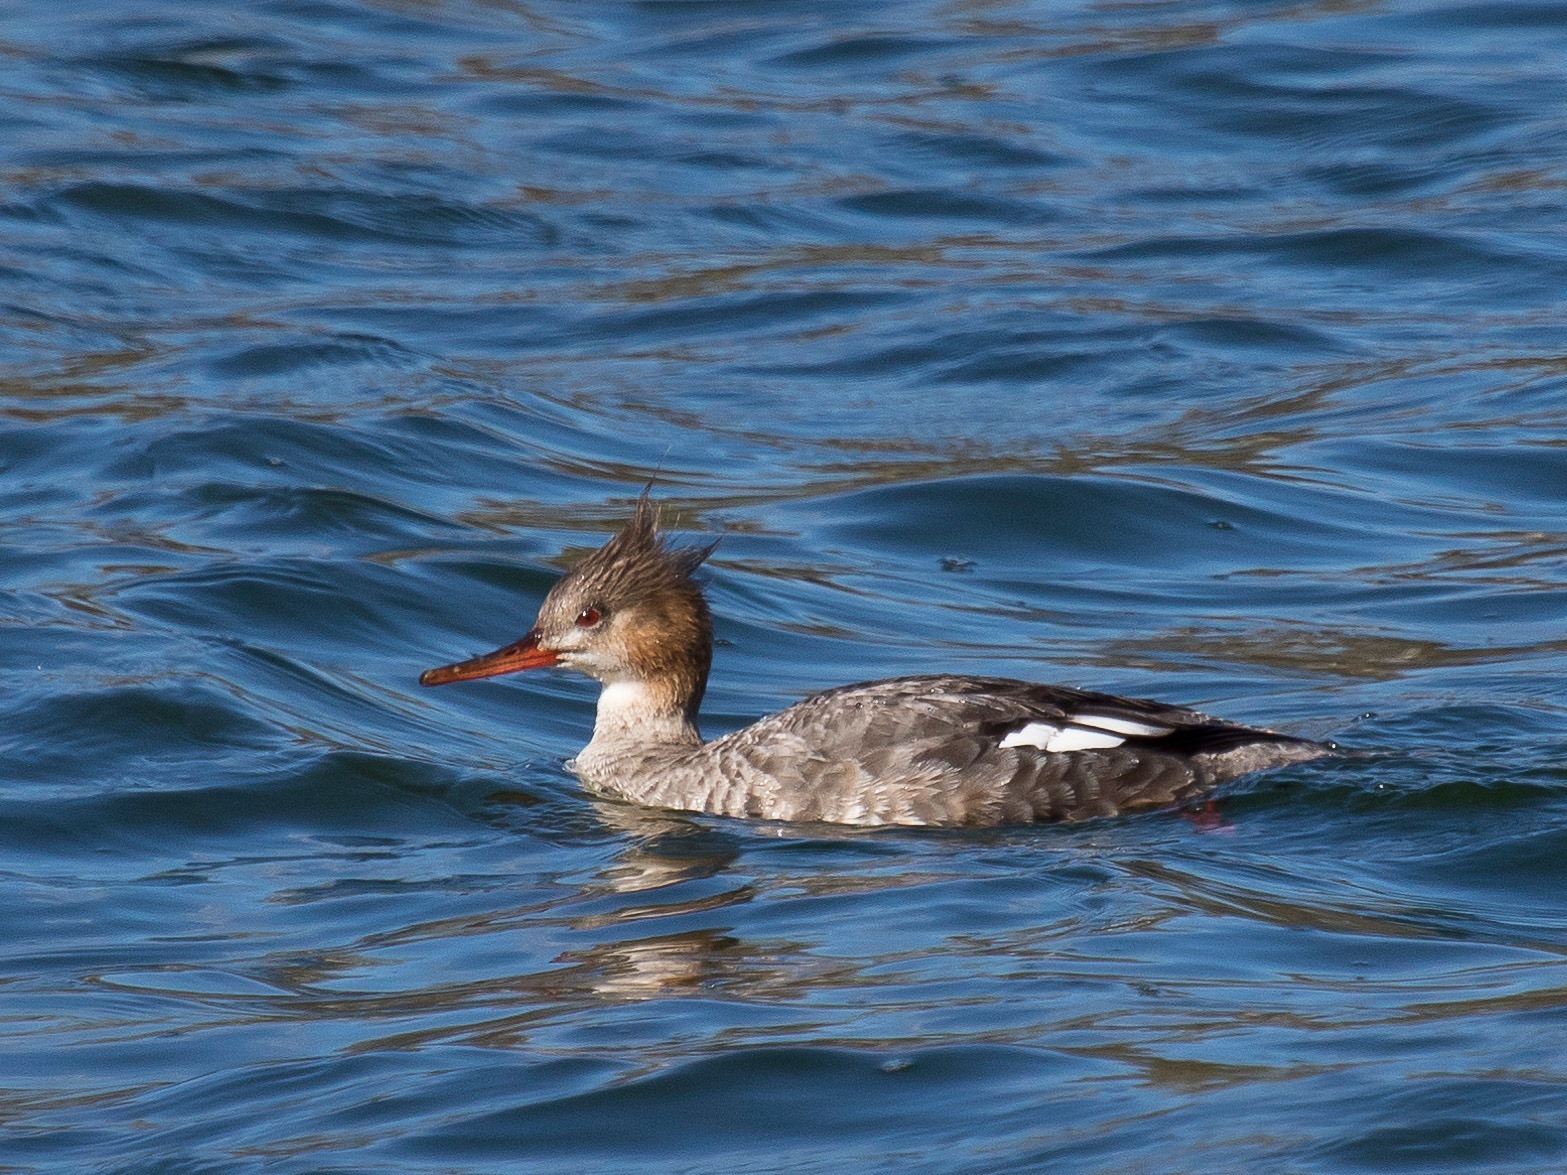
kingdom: Animalia
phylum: Chordata
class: Aves
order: Anseriformes
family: Anatidae
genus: Mergus
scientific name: Mergus serrator
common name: Red-breasted merganser
